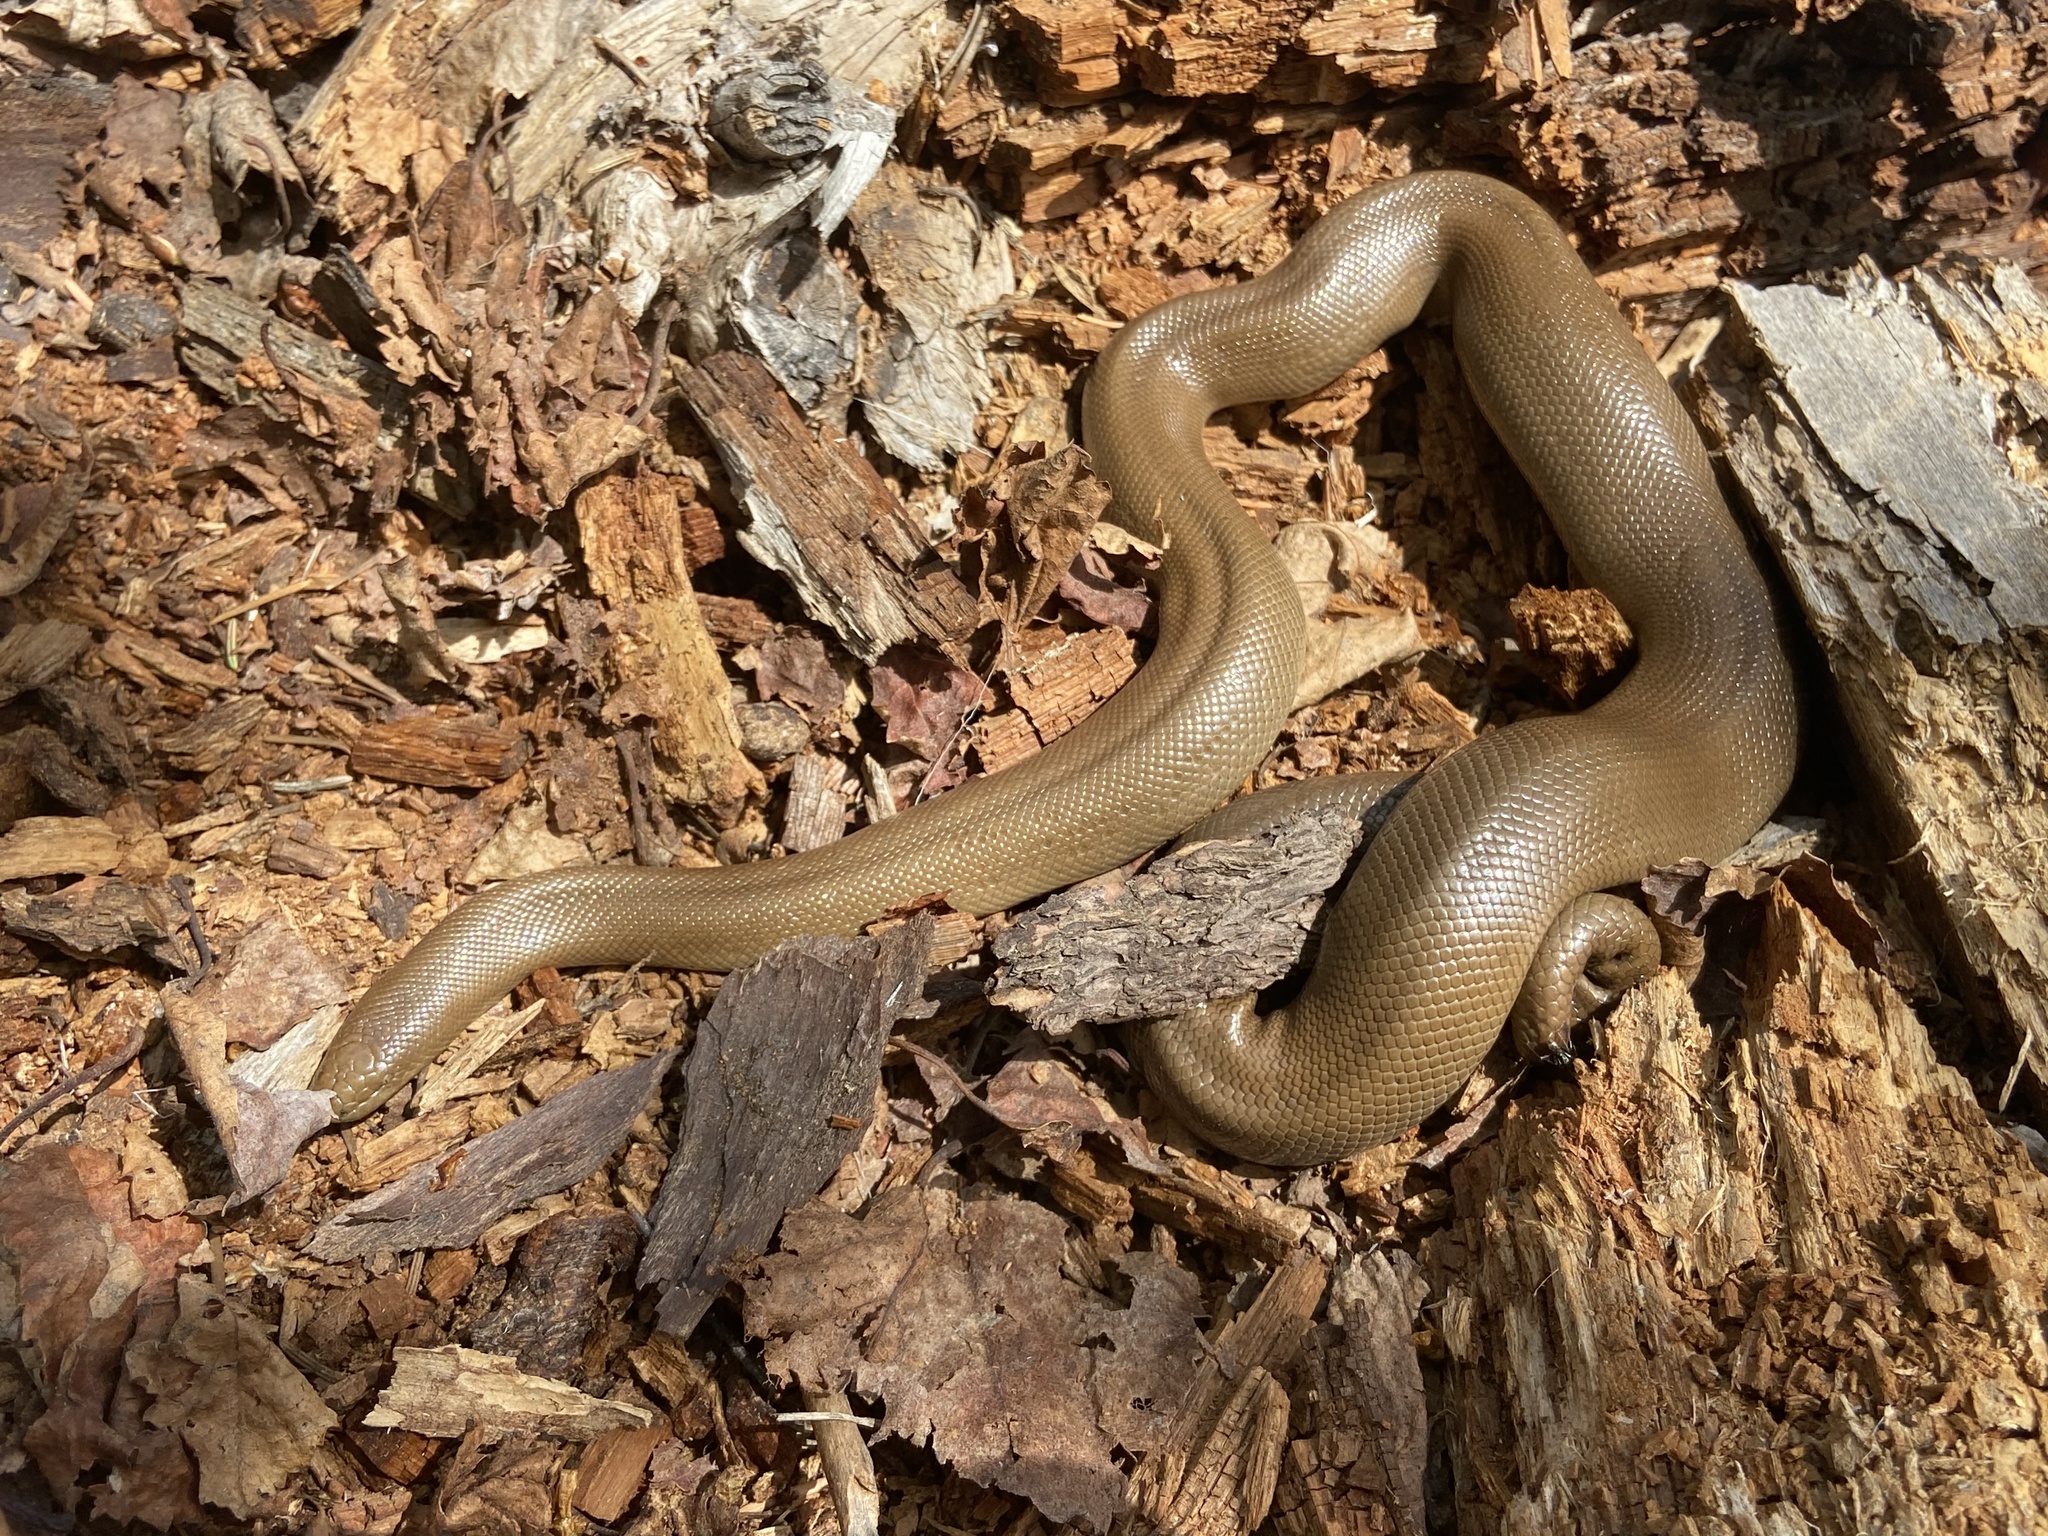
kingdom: Animalia
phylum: Chordata
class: Squamata
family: Boidae
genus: Charina
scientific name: Charina bottae
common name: Northern rubber boa
